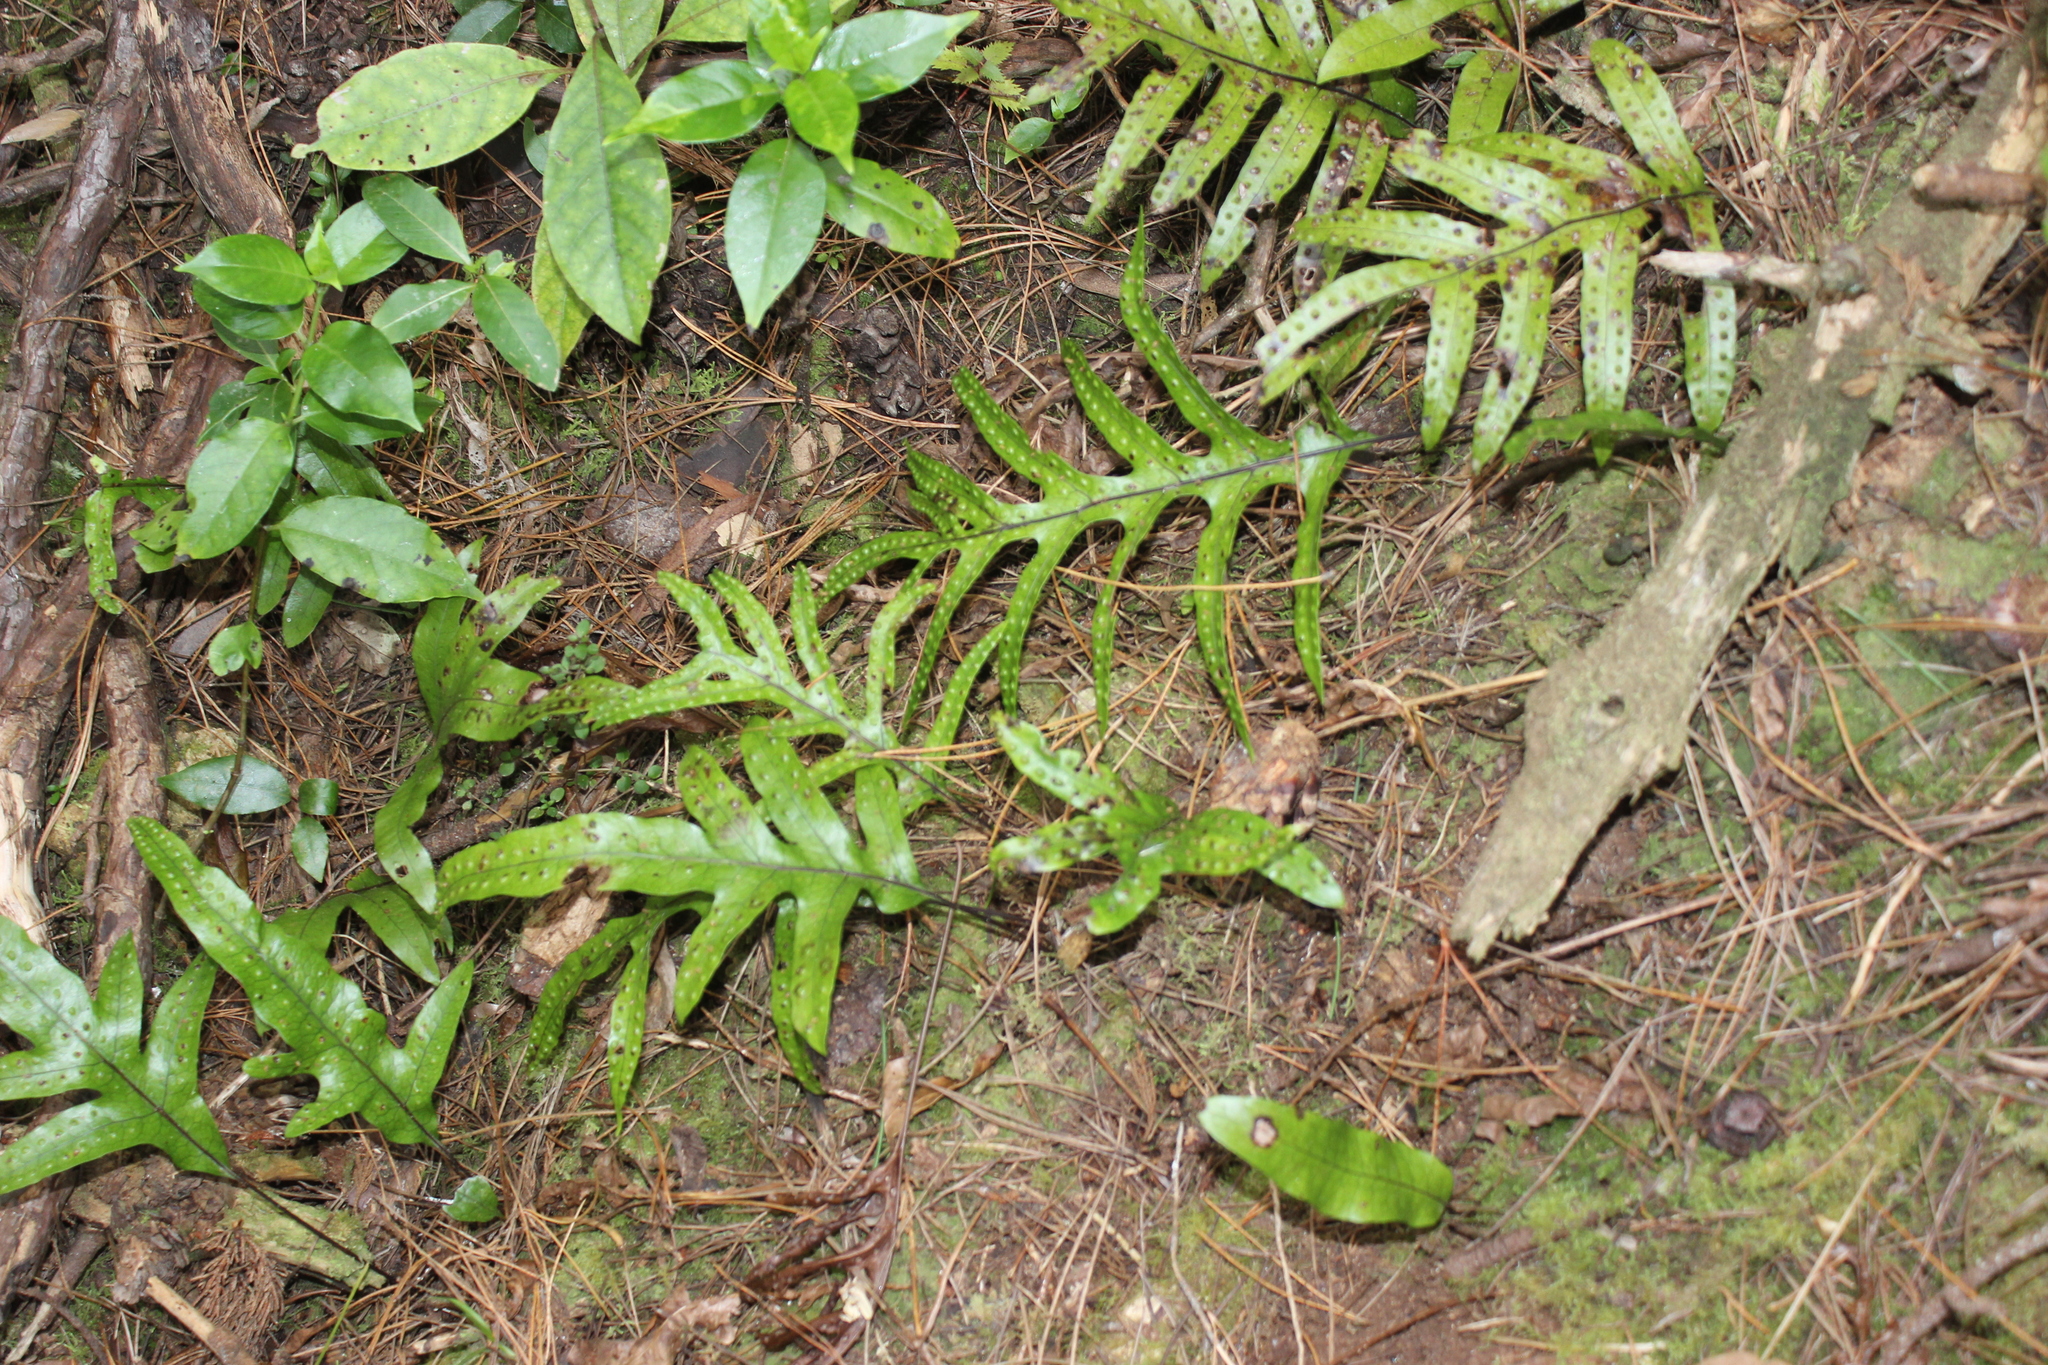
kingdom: Plantae
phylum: Tracheophyta
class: Polypodiopsida
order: Polypodiales
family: Polypodiaceae
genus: Lecanopteris
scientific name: Lecanopteris pustulata
